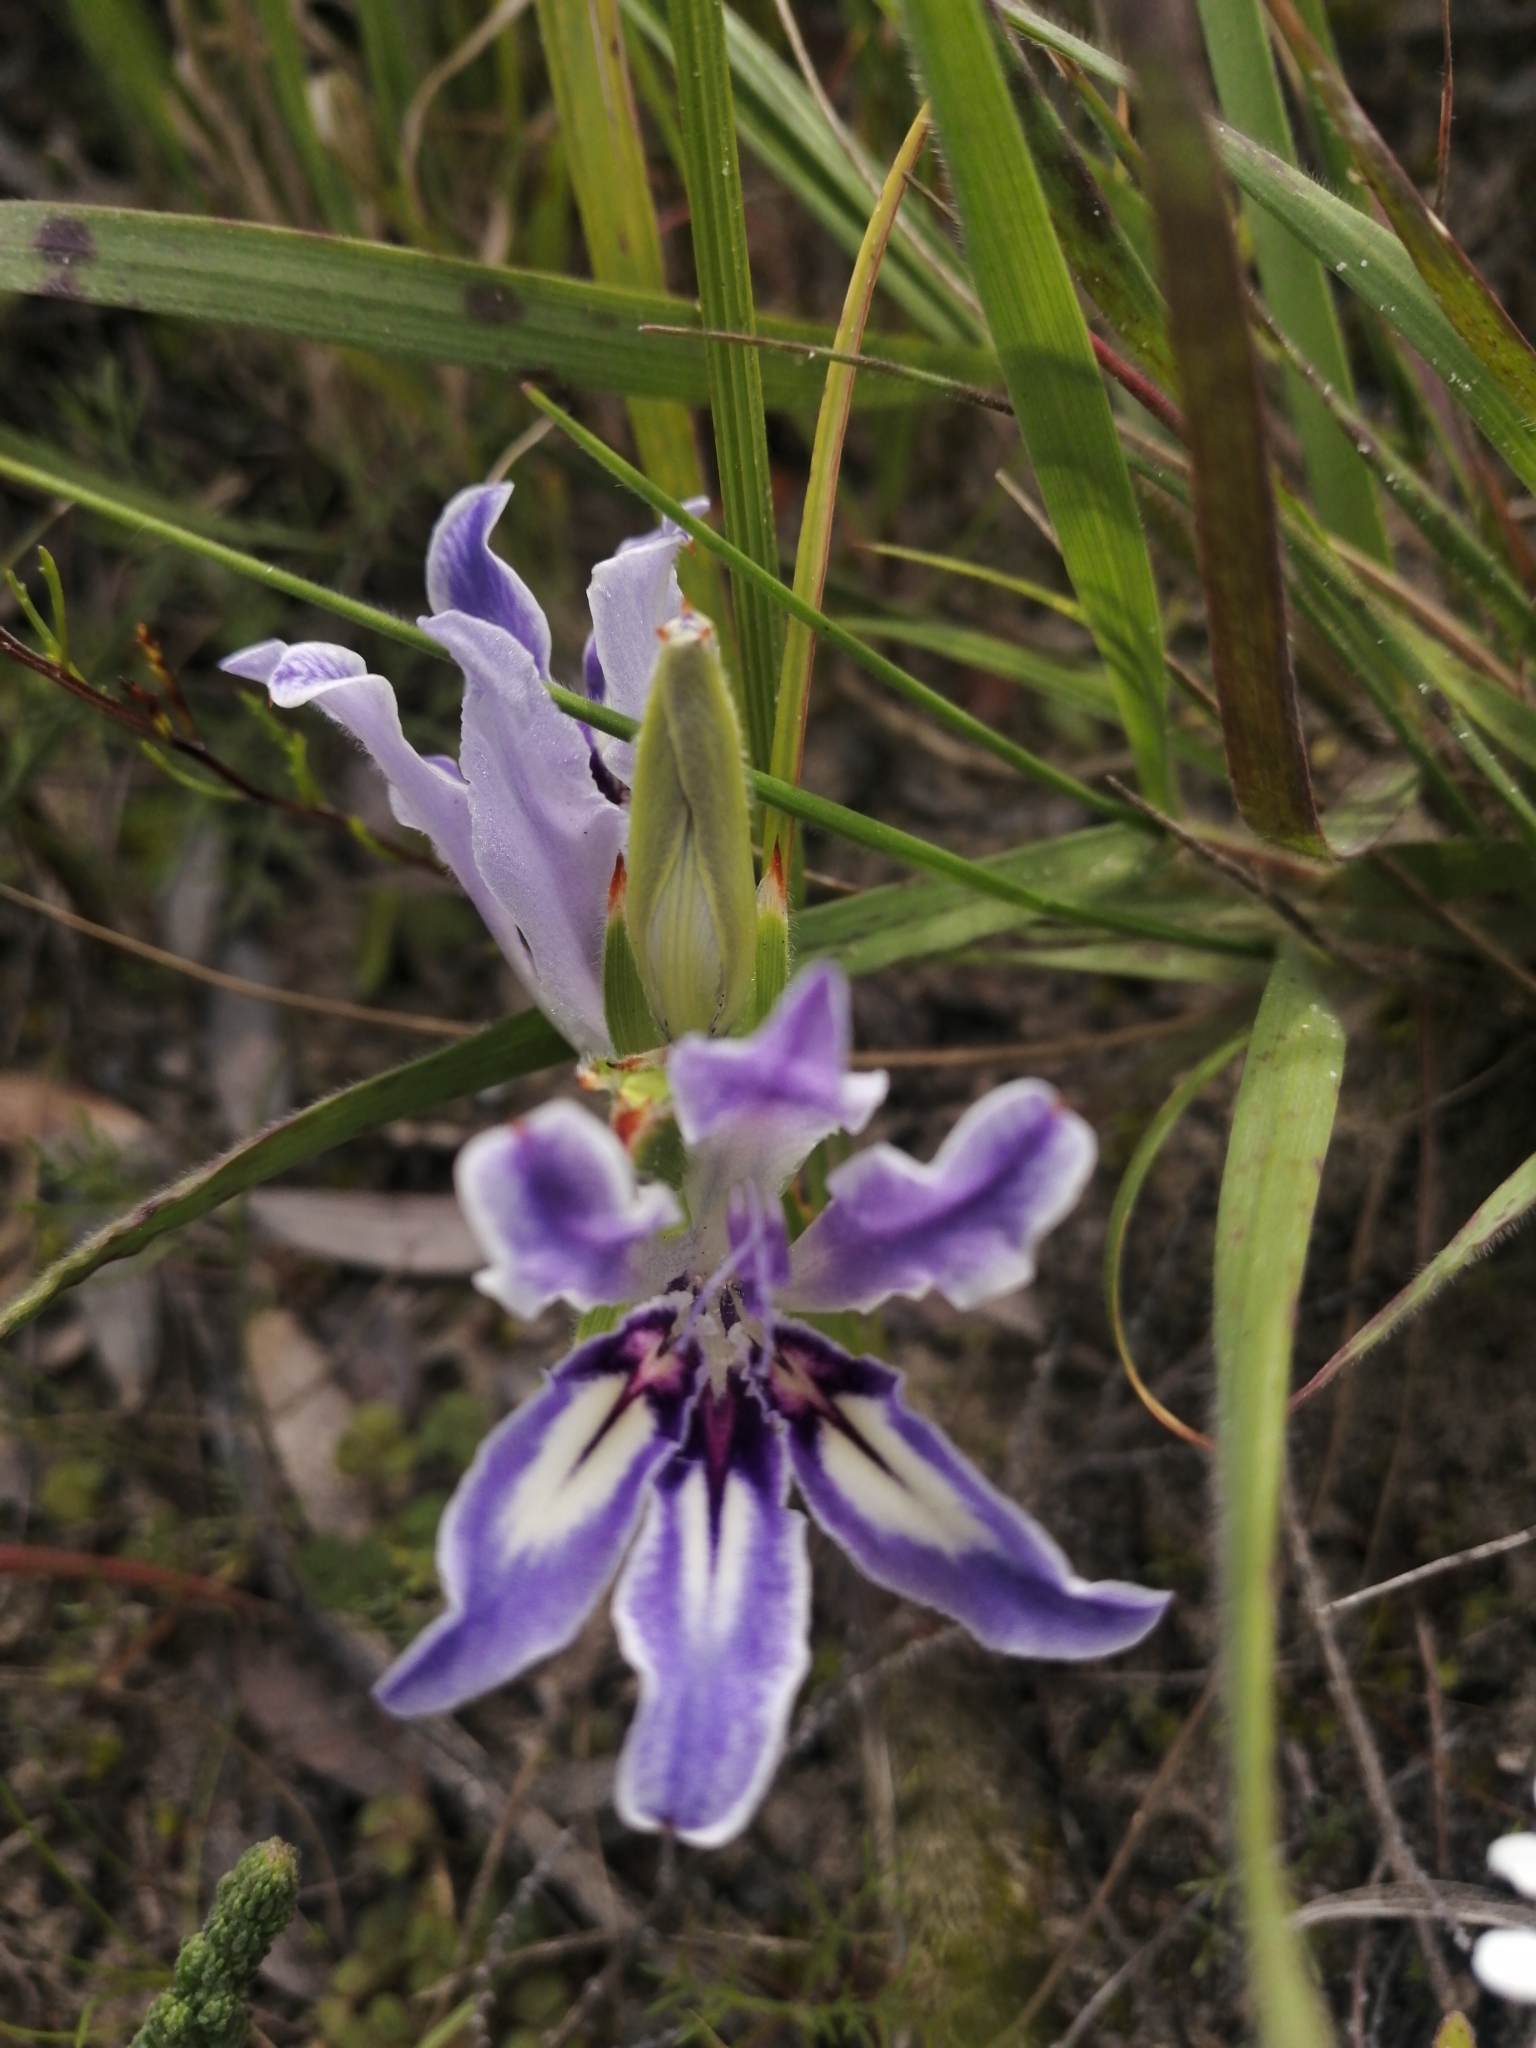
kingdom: Plantae
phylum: Tracheophyta
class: Liliopsida
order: Asparagales
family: Iridaceae
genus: Babiana
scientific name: Babiana ambigua
